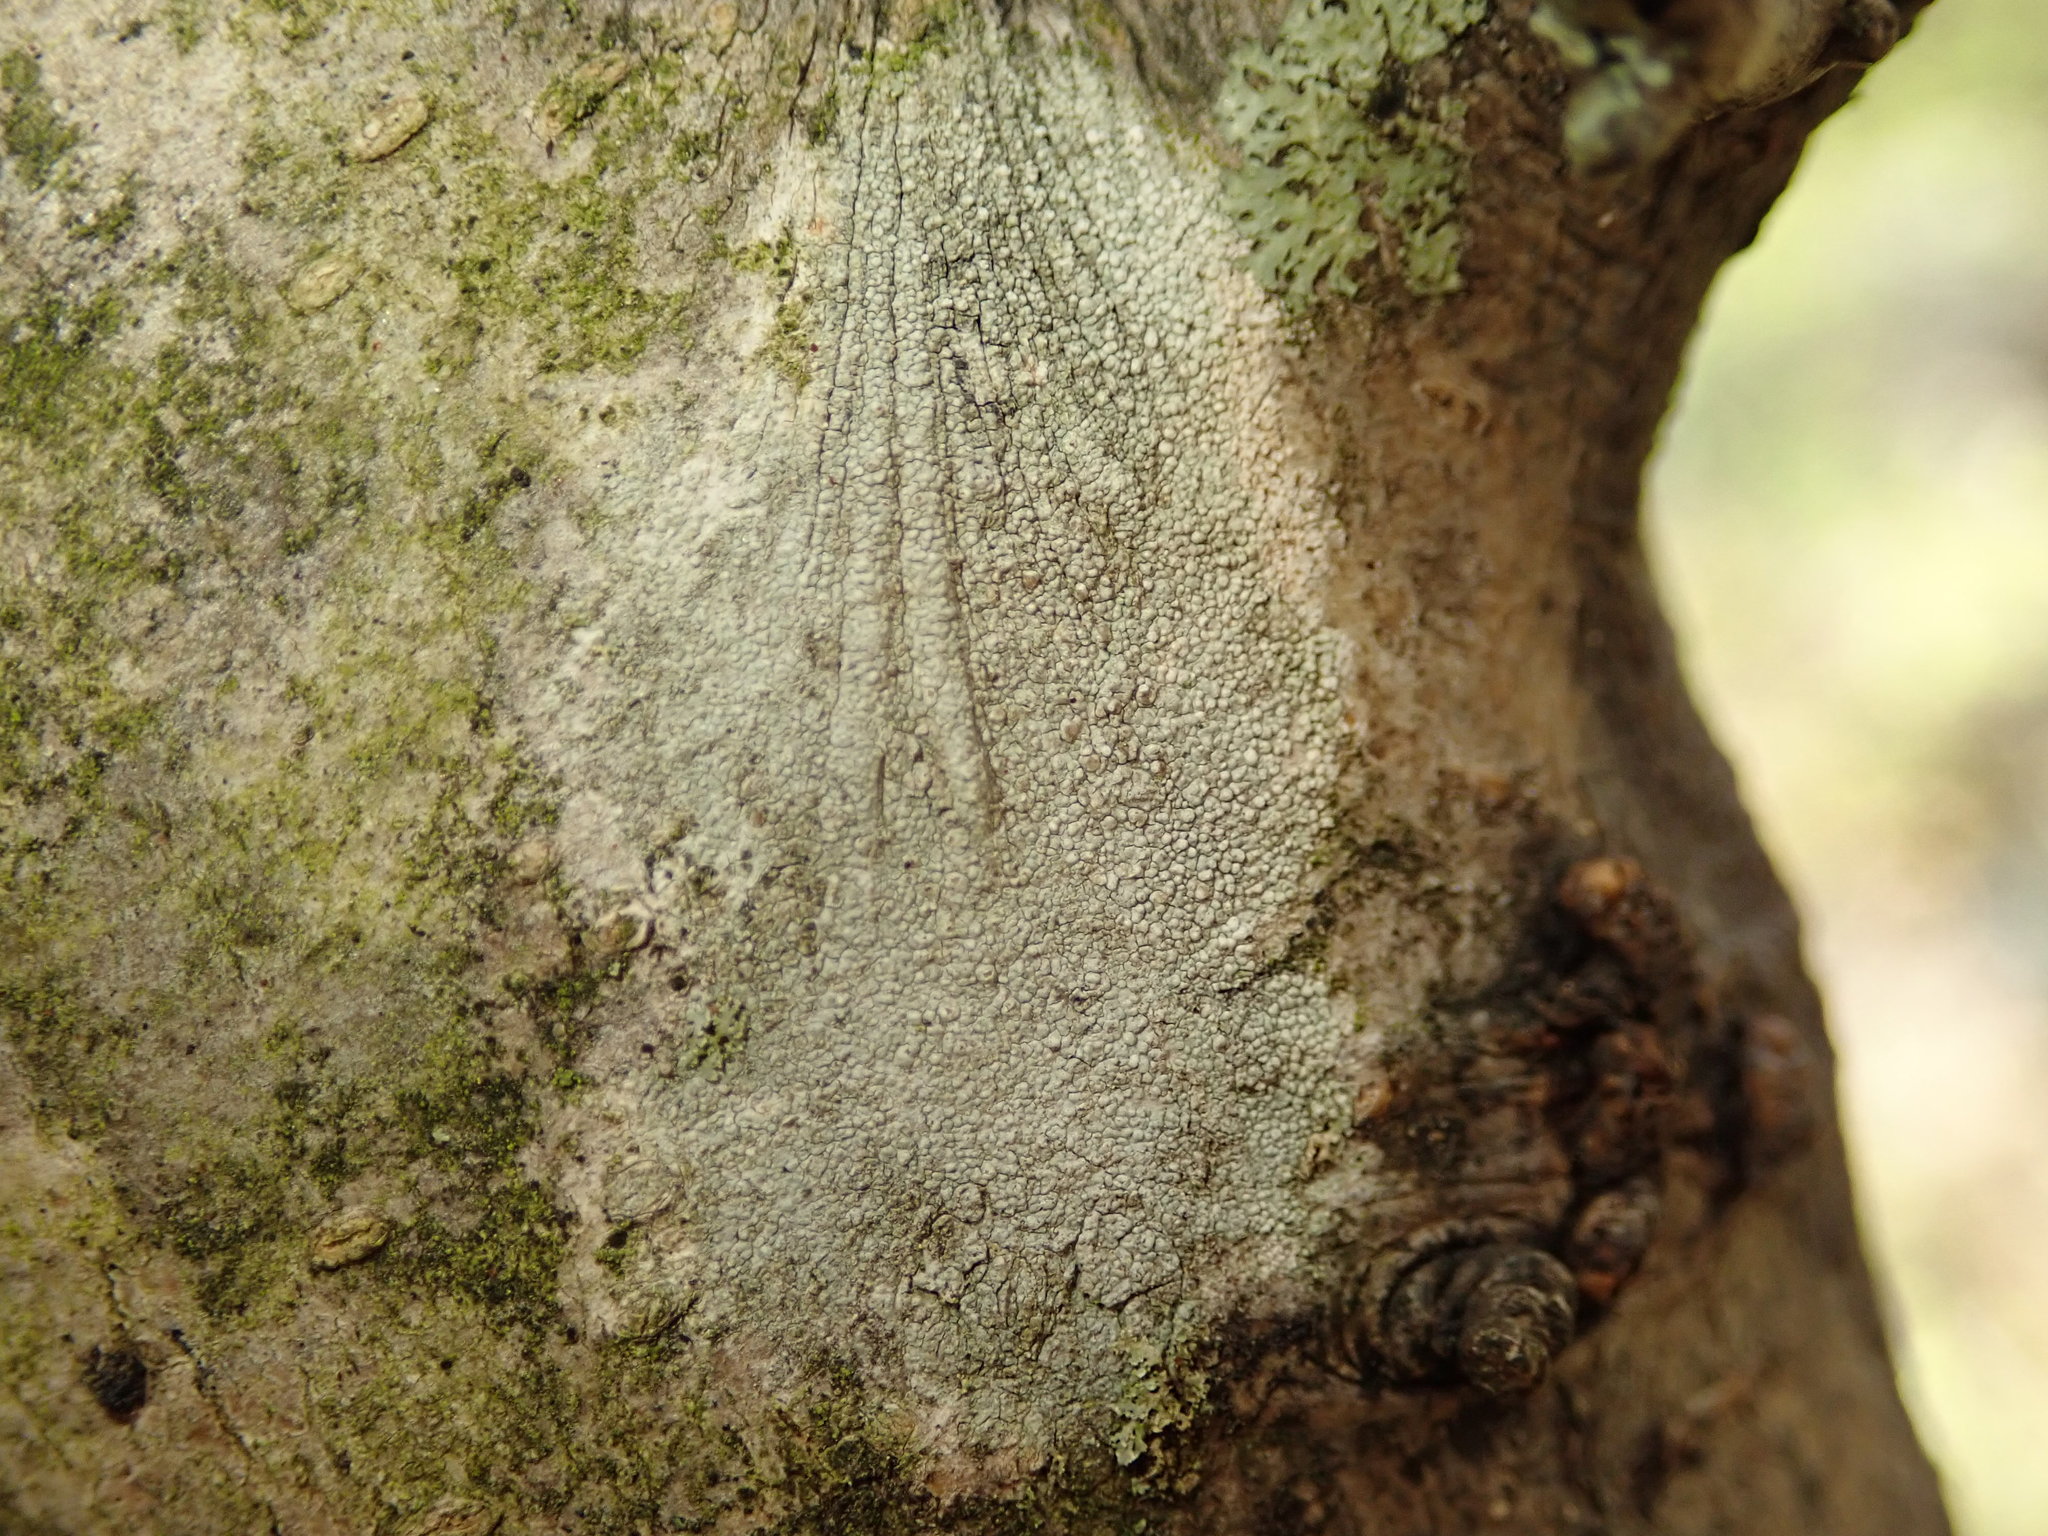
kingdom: Fungi
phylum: Ascomycota
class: Lecanoromycetes
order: Lecanorales
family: Lecanoraceae
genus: Lecanora
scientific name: Lecanora hybocarpa
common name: Bumpy rim-lichen
